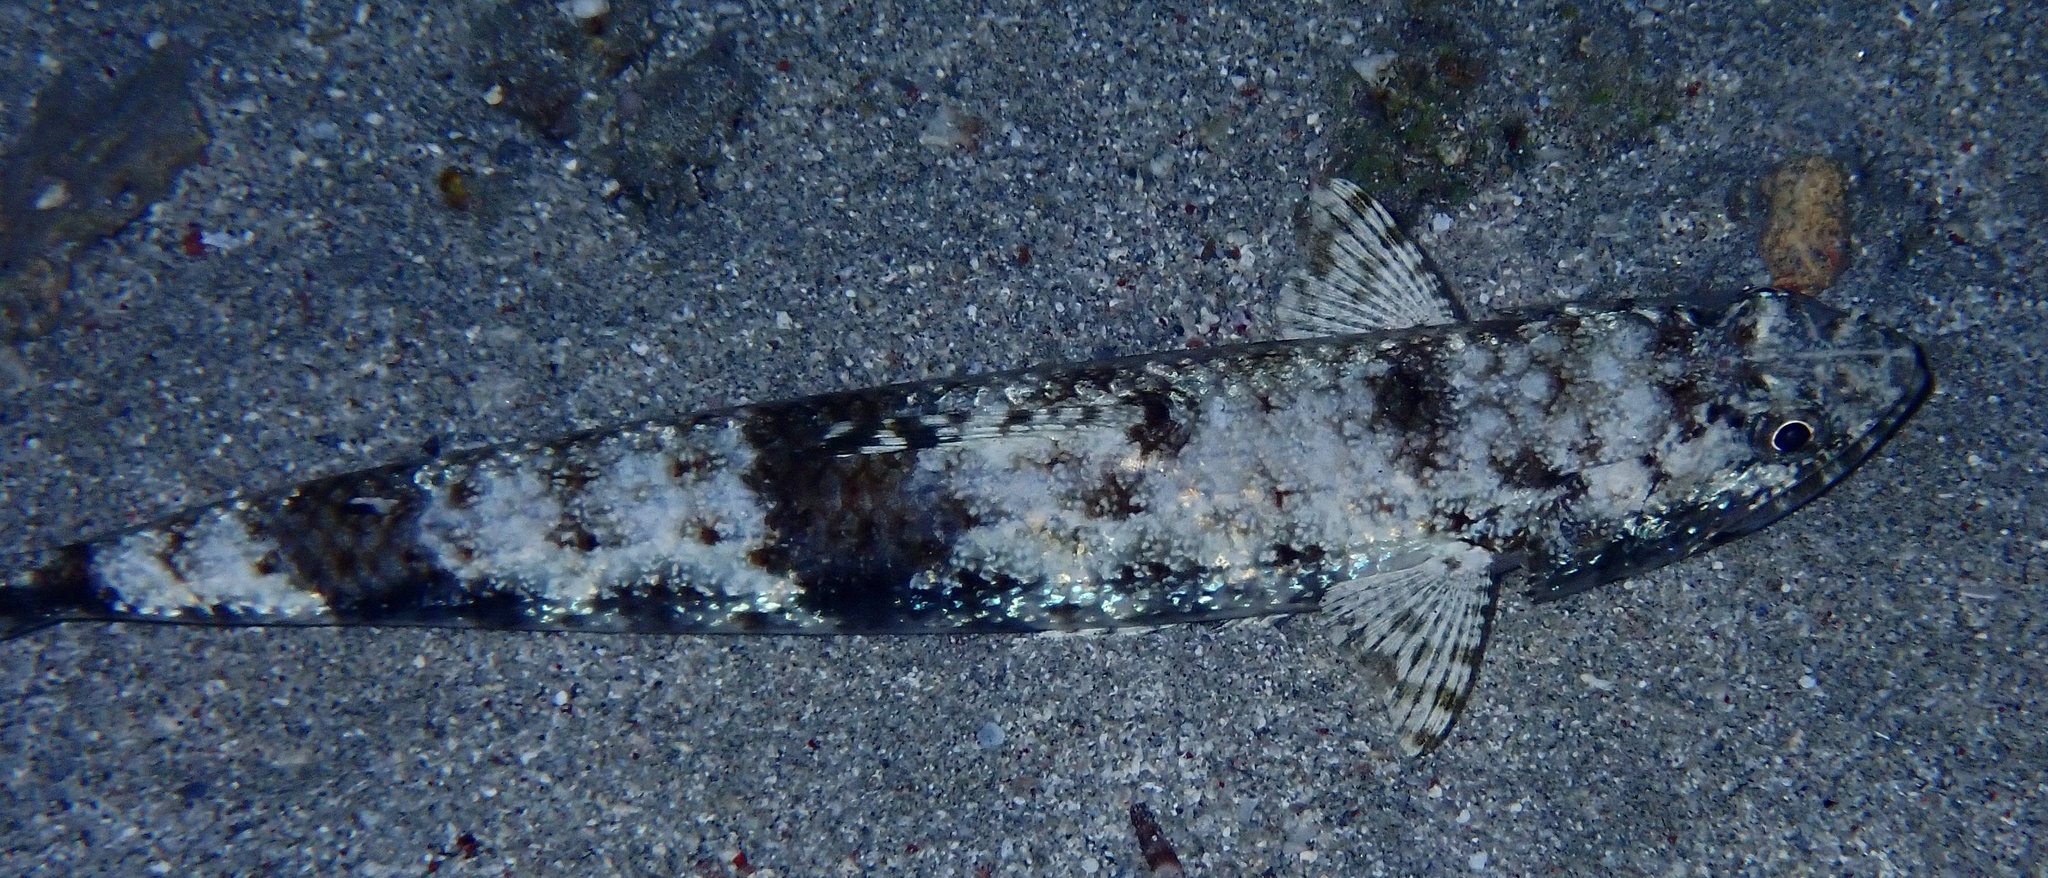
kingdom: Animalia
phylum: Chordata
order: Aulopiformes
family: Synodontidae
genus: Saurida
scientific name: Saurida gracilis
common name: Slender lizardfish
